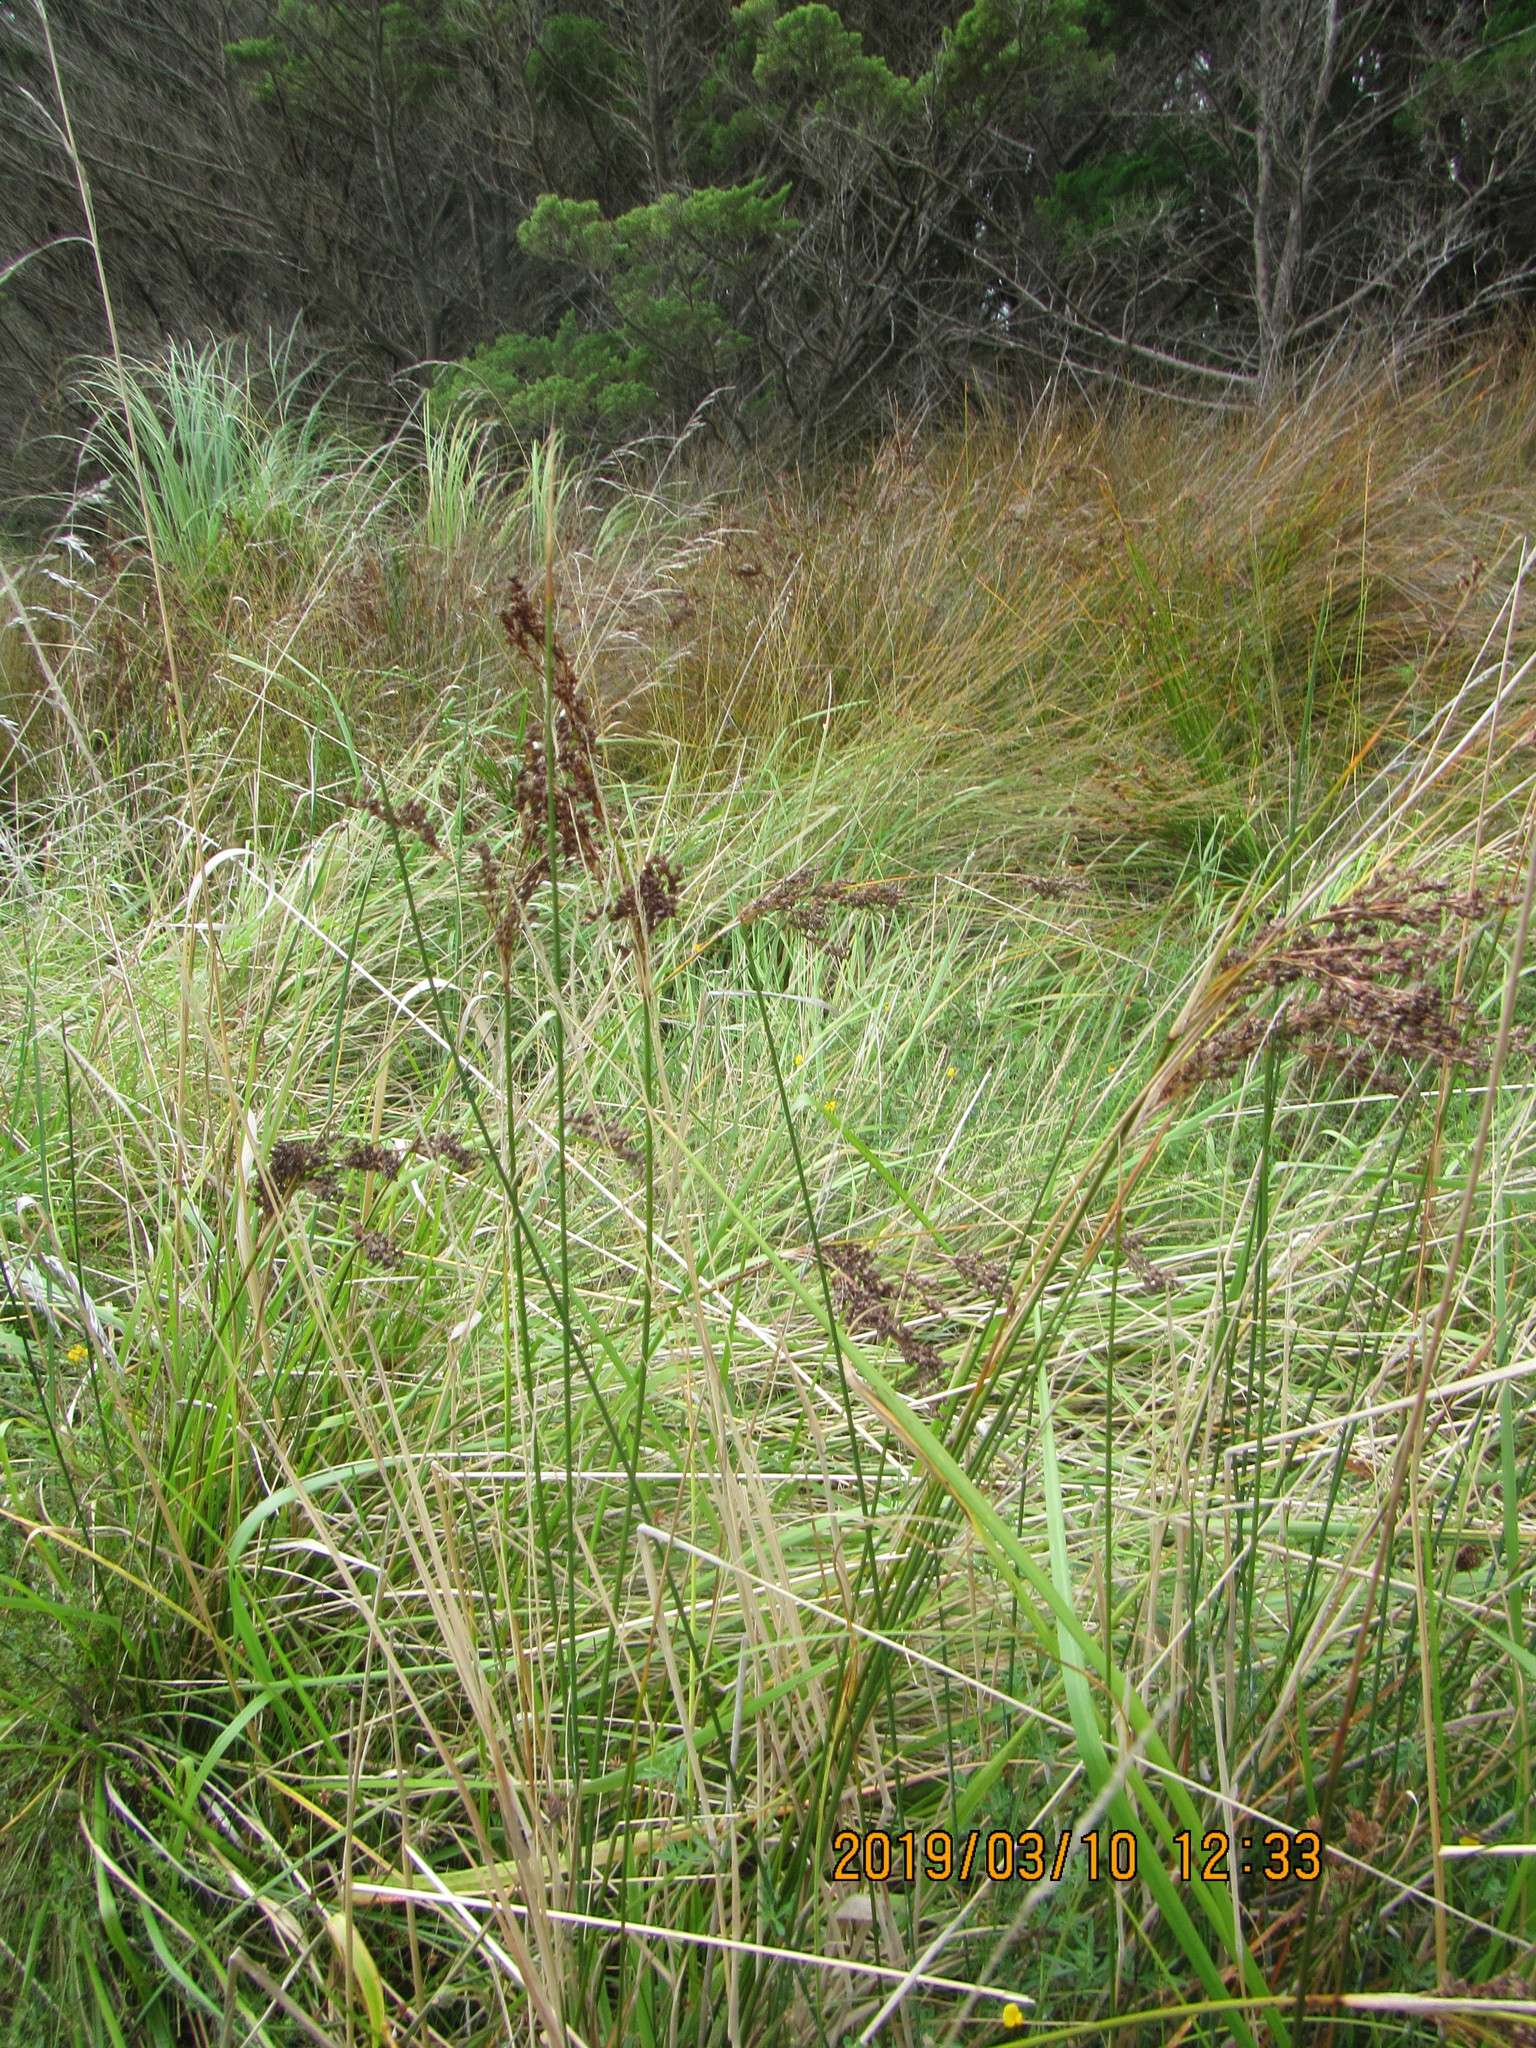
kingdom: Plantae
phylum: Tracheophyta
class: Liliopsida
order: Poales
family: Juncaceae
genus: Juncus
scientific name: Juncus kraussii
